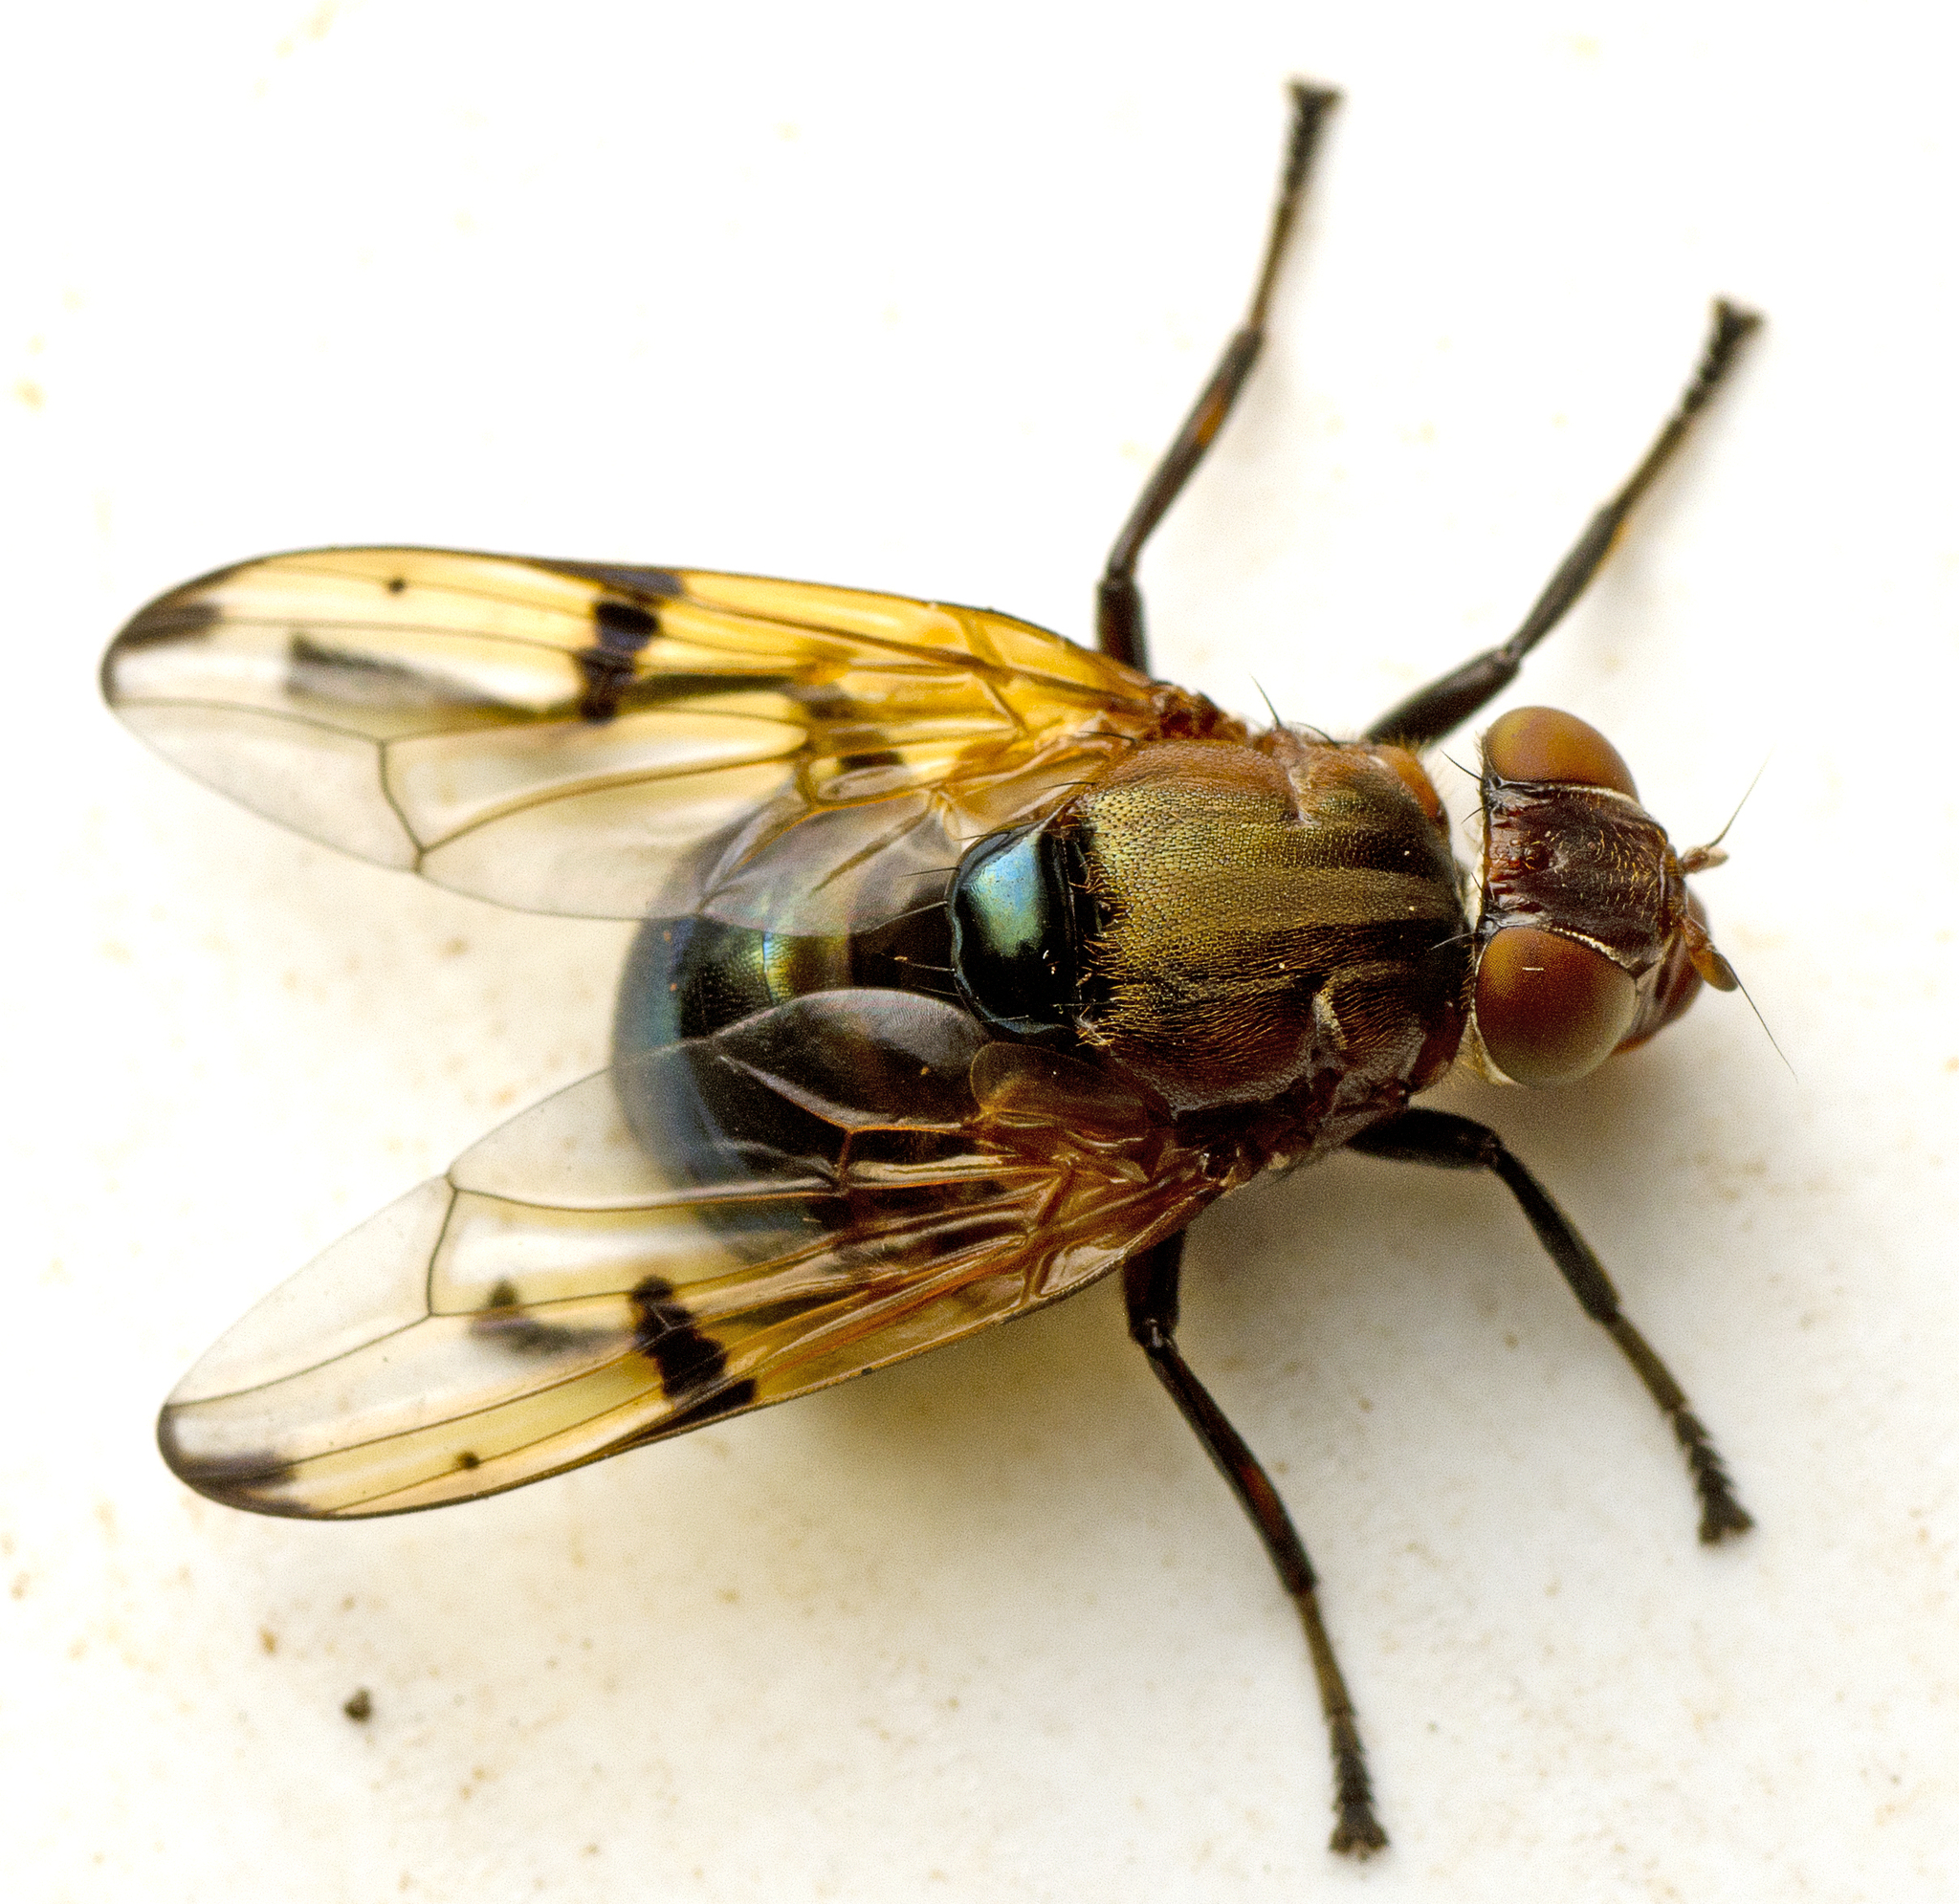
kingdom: Animalia
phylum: Arthropoda
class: Insecta
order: Diptera
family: Platystomatidae
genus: Lamprogaster
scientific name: Lamprogaster corusca
